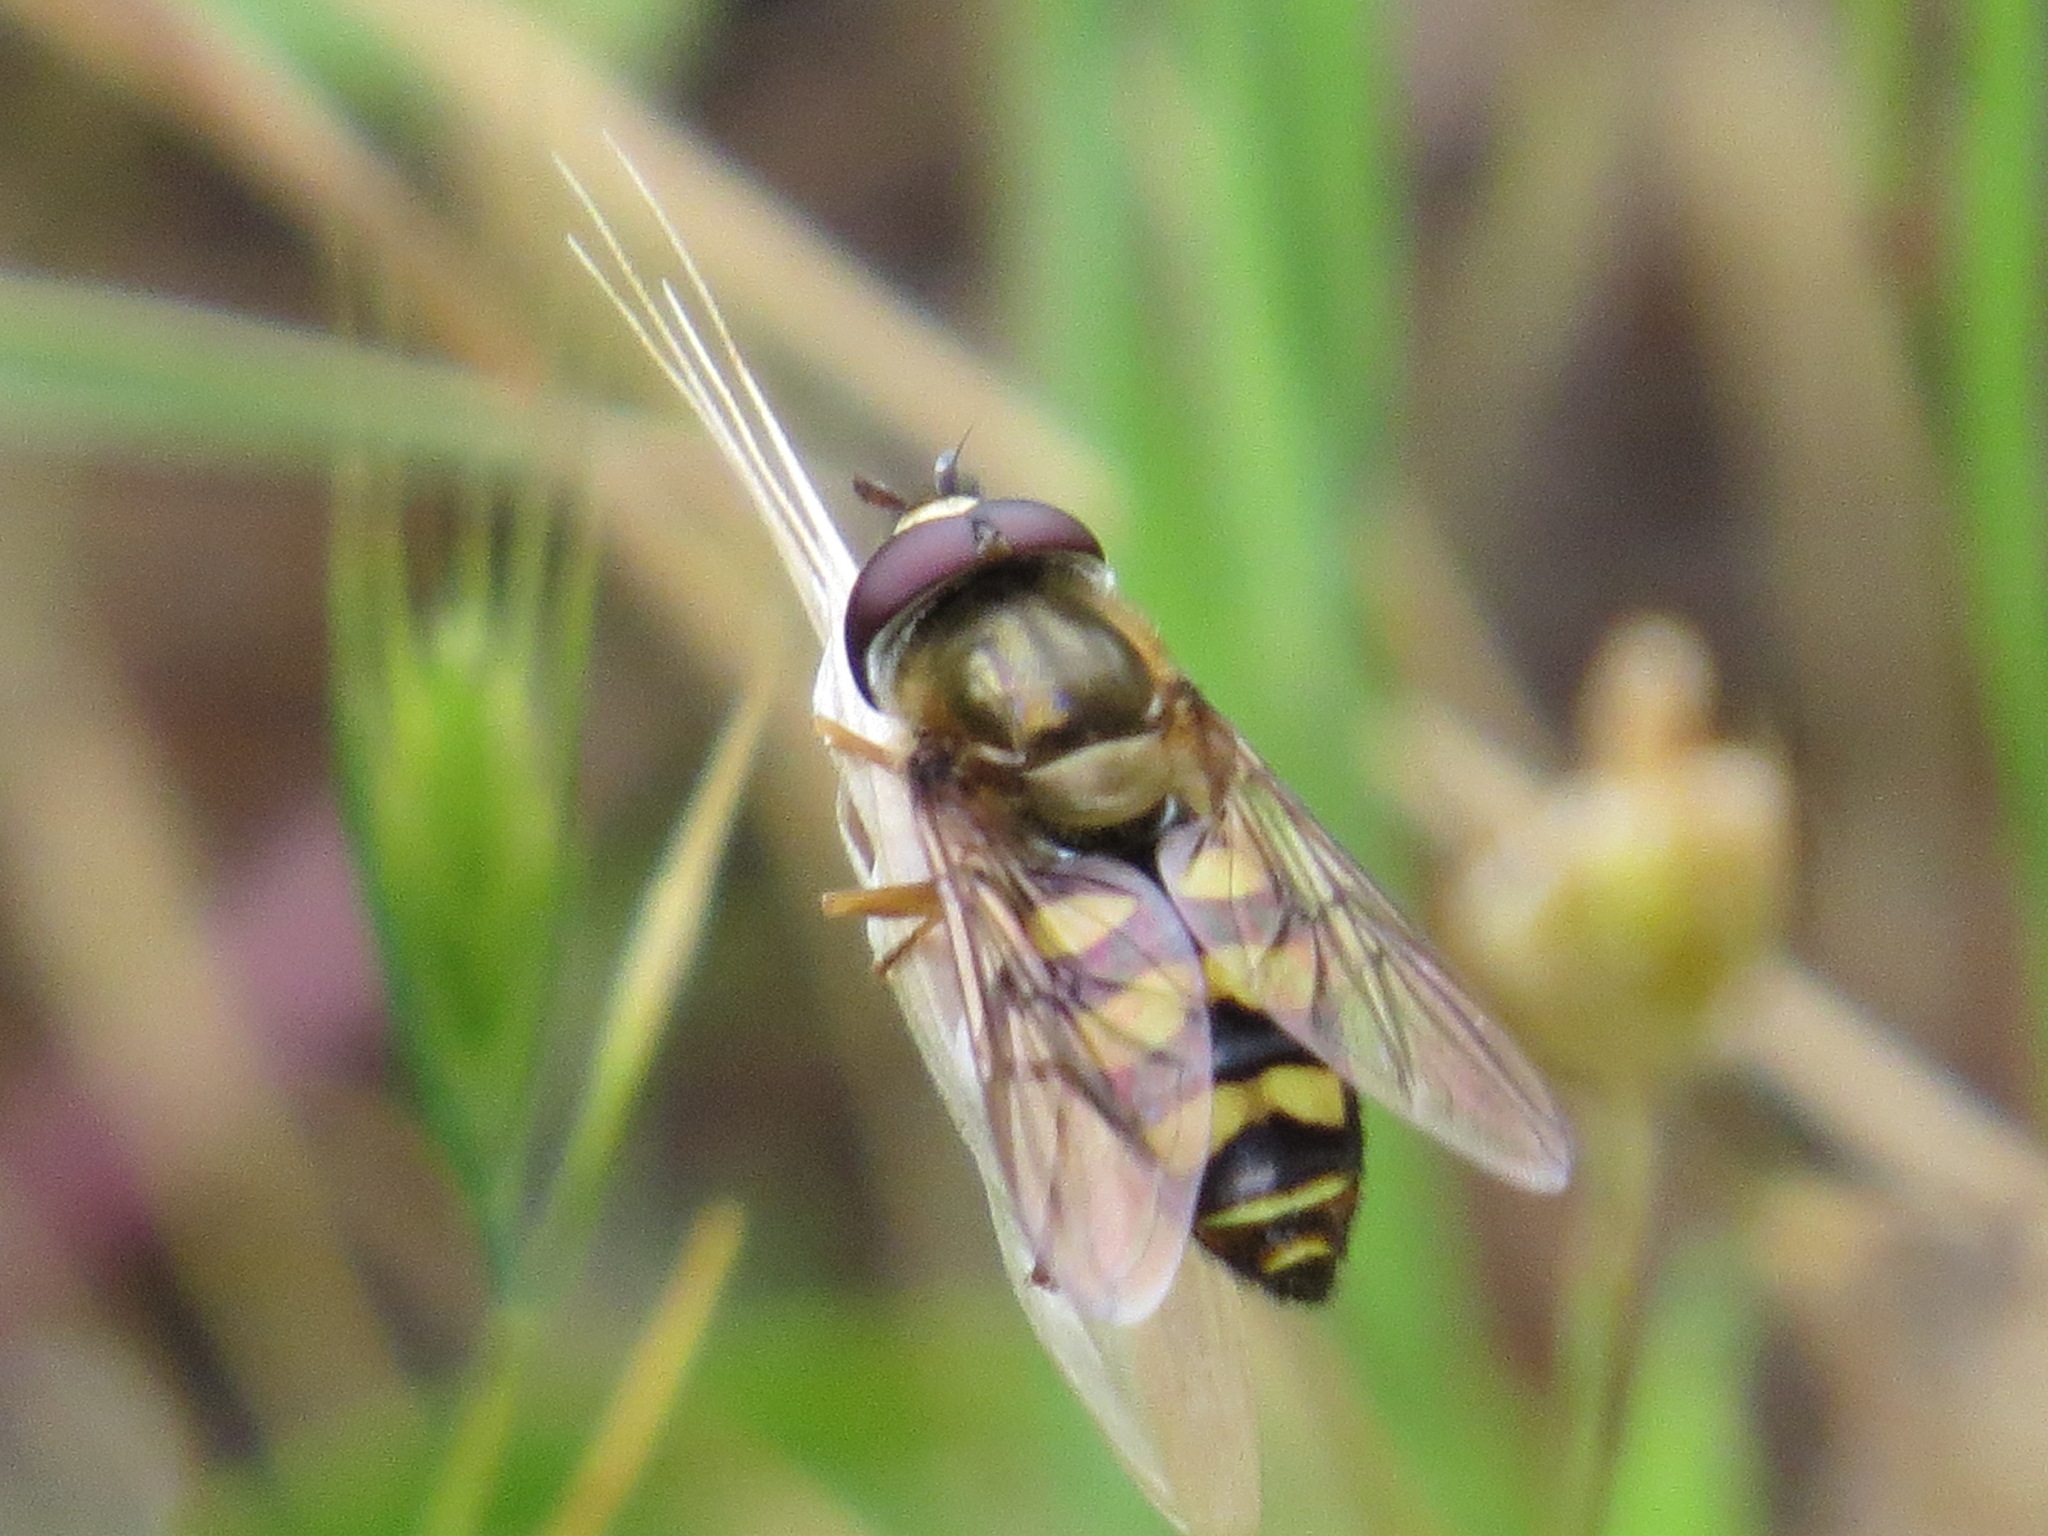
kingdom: Animalia
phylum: Arthropoda
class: Insecta
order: Diptera
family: Syrphidae
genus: Eupeodes
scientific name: Eupeodes fumipennis
